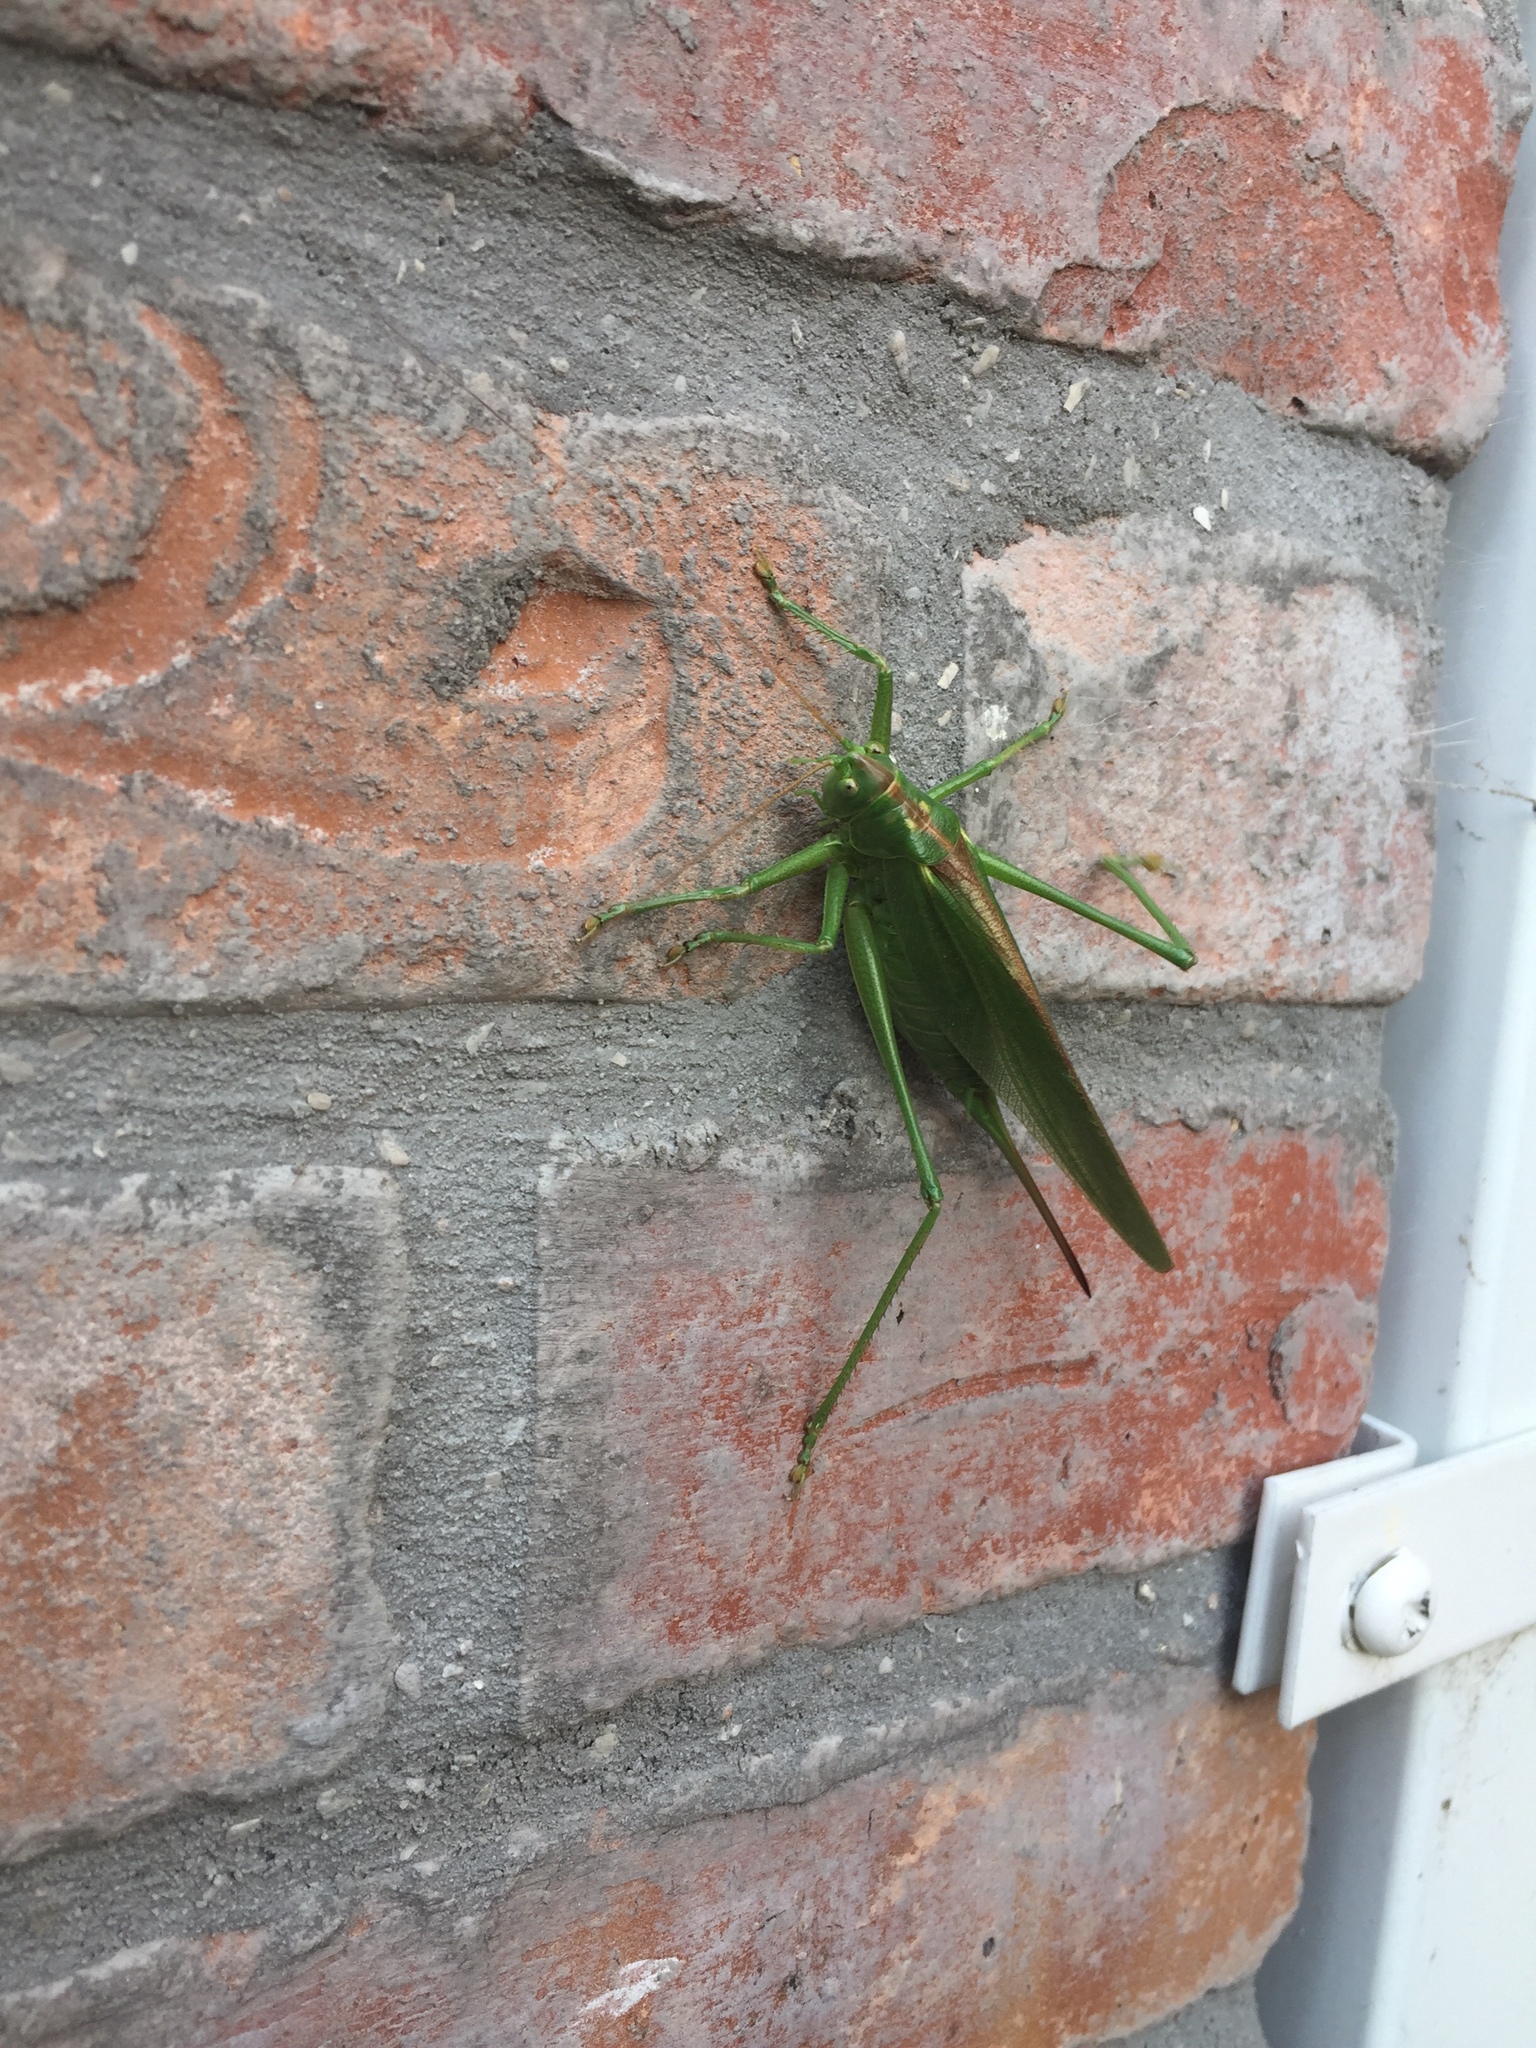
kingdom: Animalia
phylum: Arthropoda
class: Insecta
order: Orthoptera
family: Tettigoniidae
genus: Tettigonia
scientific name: Tettigonia viridissima
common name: Great green bush-cricket
